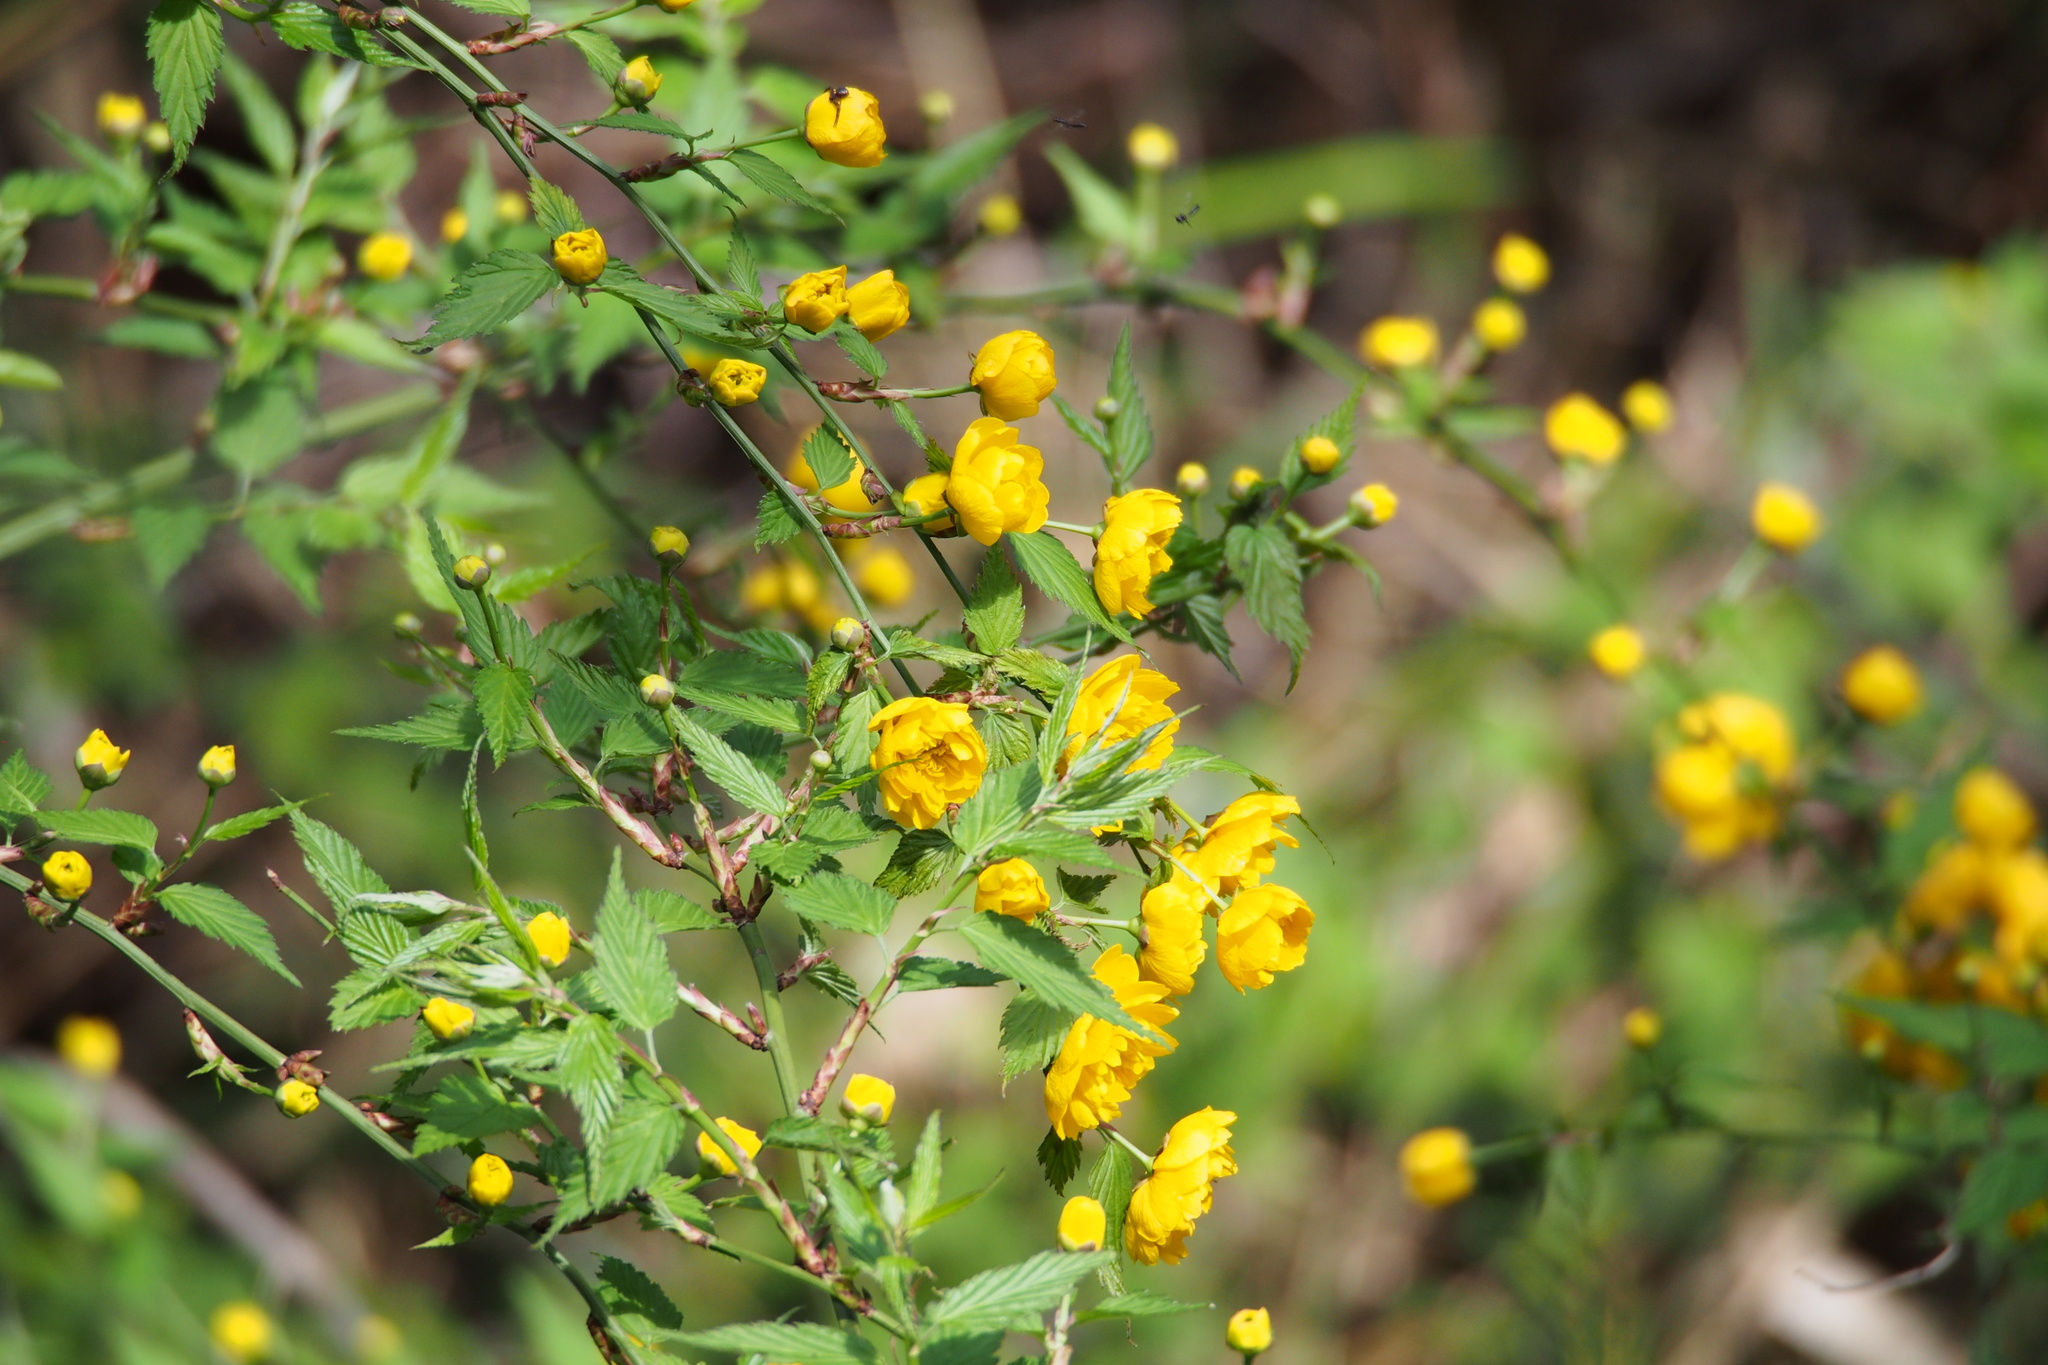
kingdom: Plantae
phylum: Tracheophyta
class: Magnoliopsida
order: Rosales
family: Rosaceae
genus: Kerria
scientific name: Kerria japonica
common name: Japanese kerria
